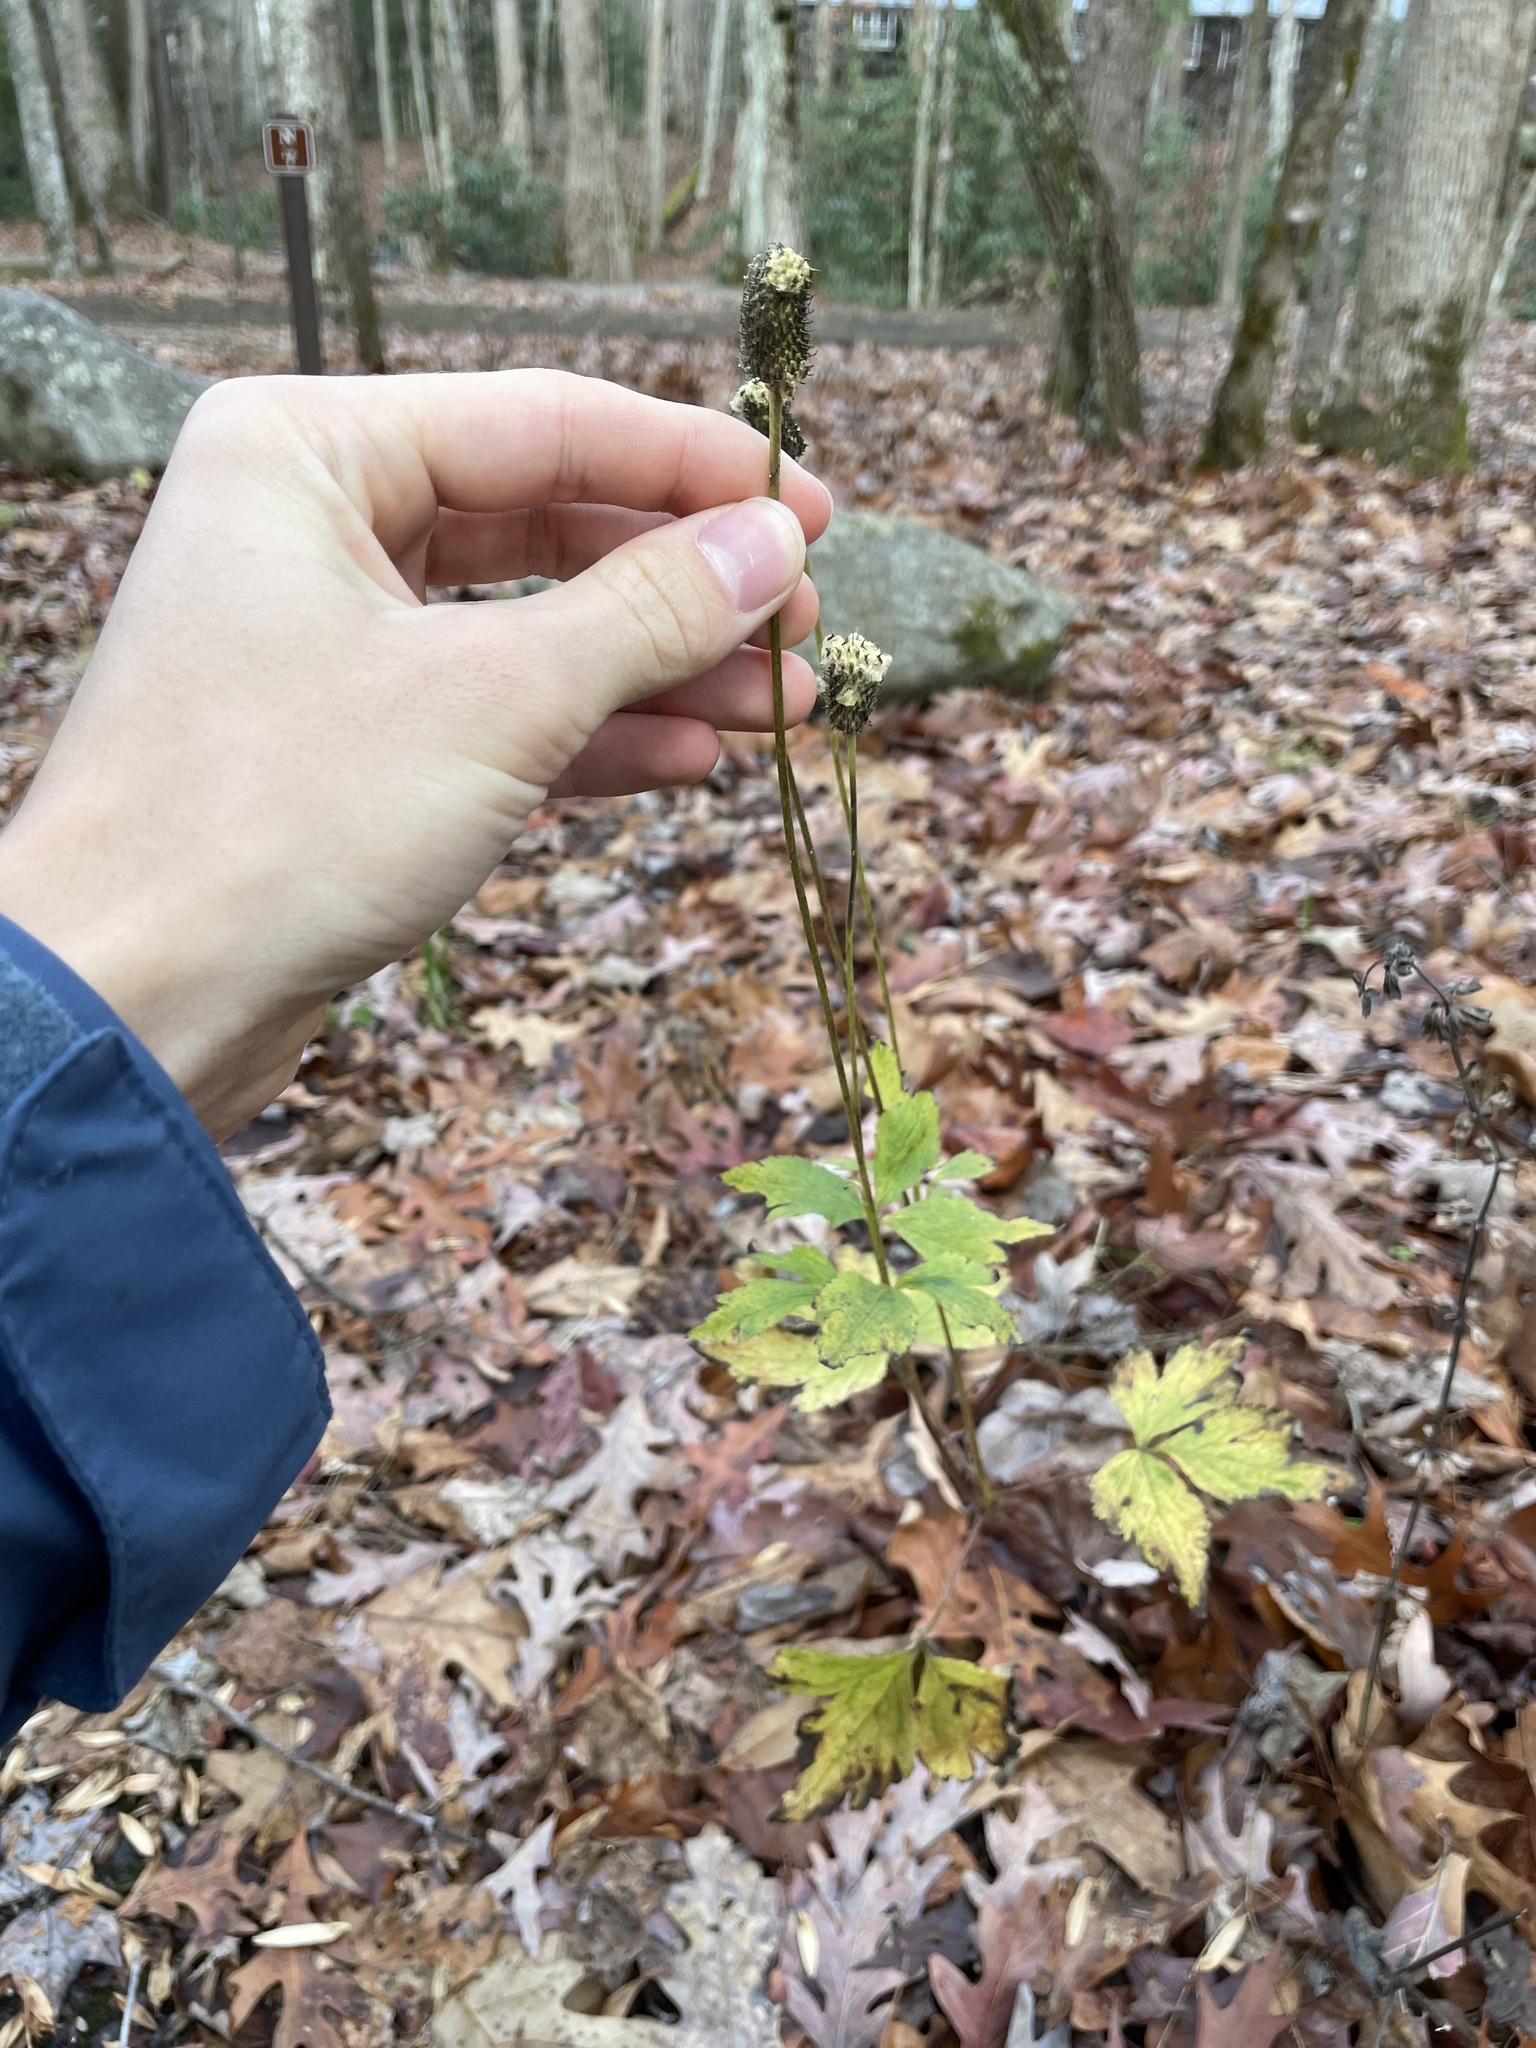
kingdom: Plantae
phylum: Tracheophyta
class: Magnoliopsida
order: Ranunculales
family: Ranunculaceae
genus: Anemone
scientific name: Anemone virginiana
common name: Tall anemone
